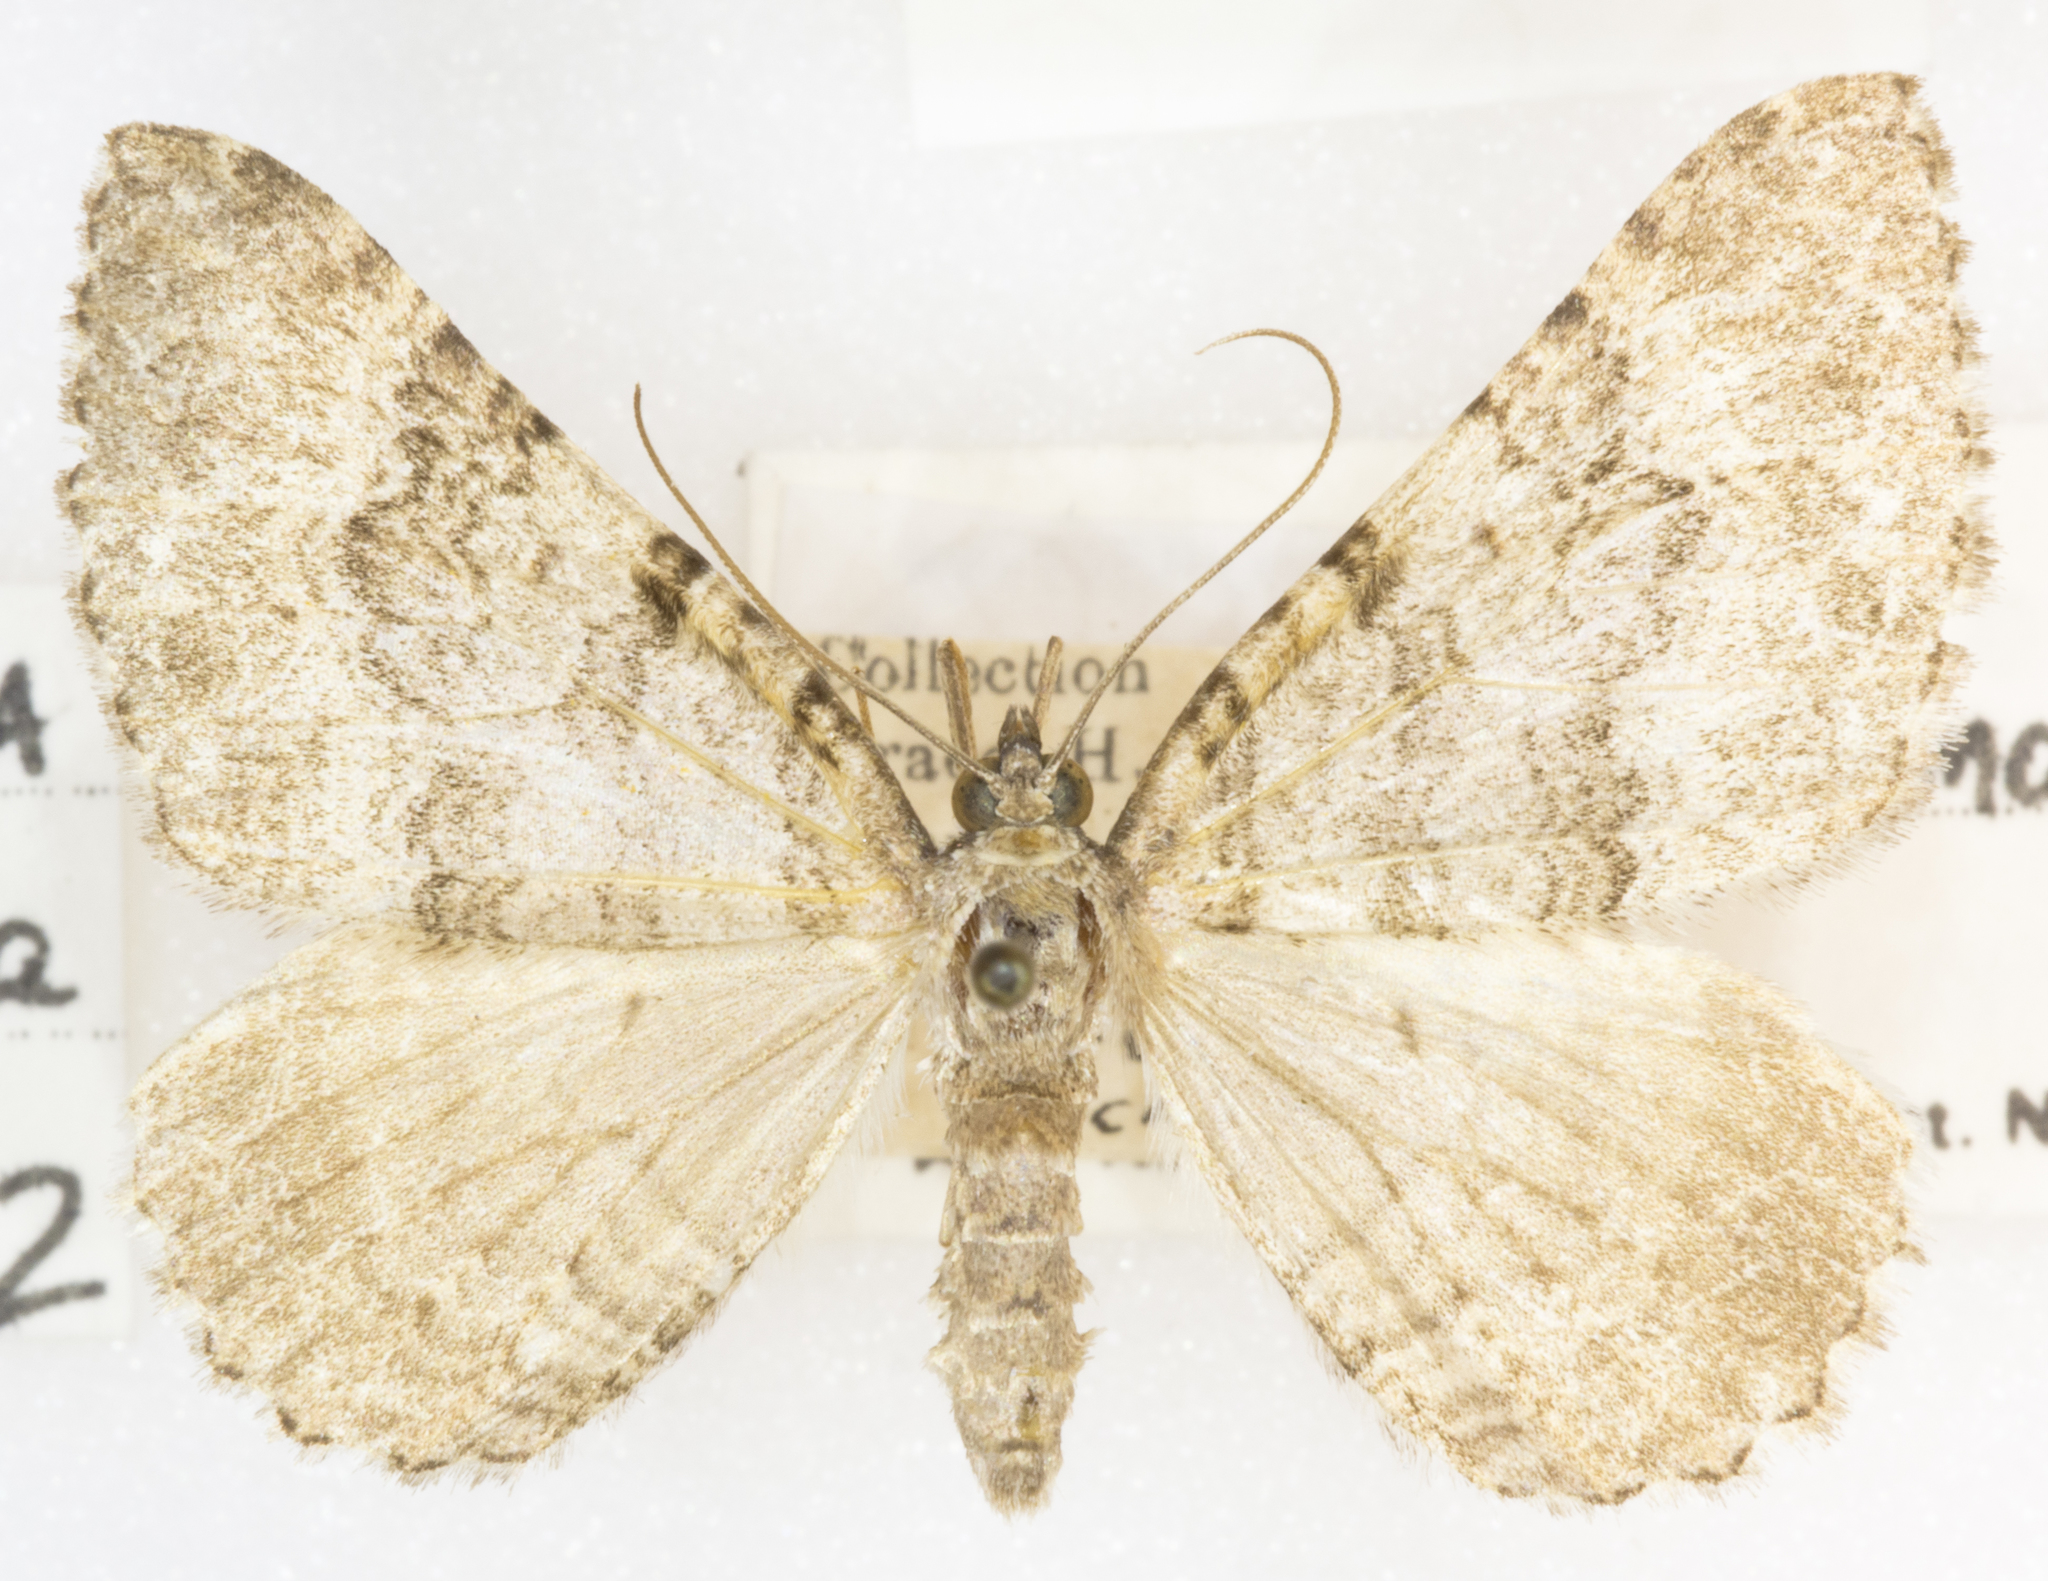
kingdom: Animalia
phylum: Arthropoda
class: Insecta
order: Lepidoptera
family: Geometridae
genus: Archirhoe
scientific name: Archirhoe neomexicana
